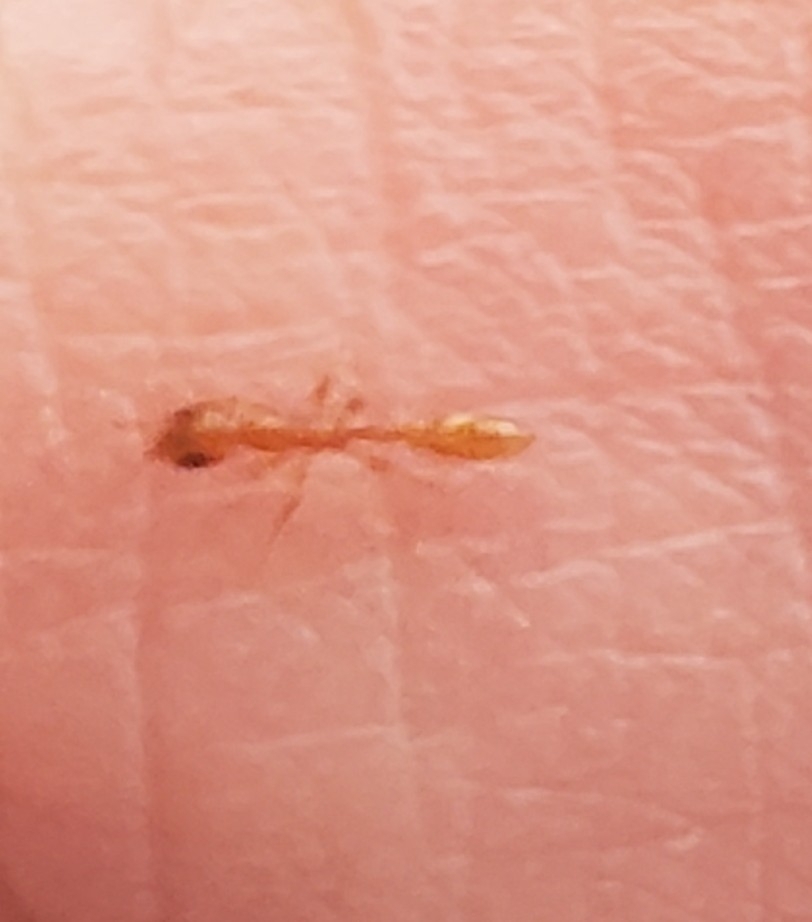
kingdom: Animalia
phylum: Arthropoda
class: Insecta
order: Hymenoptera
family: Formicidae
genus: Pseudomyrmex
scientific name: Pseudomyrmex pallidus
